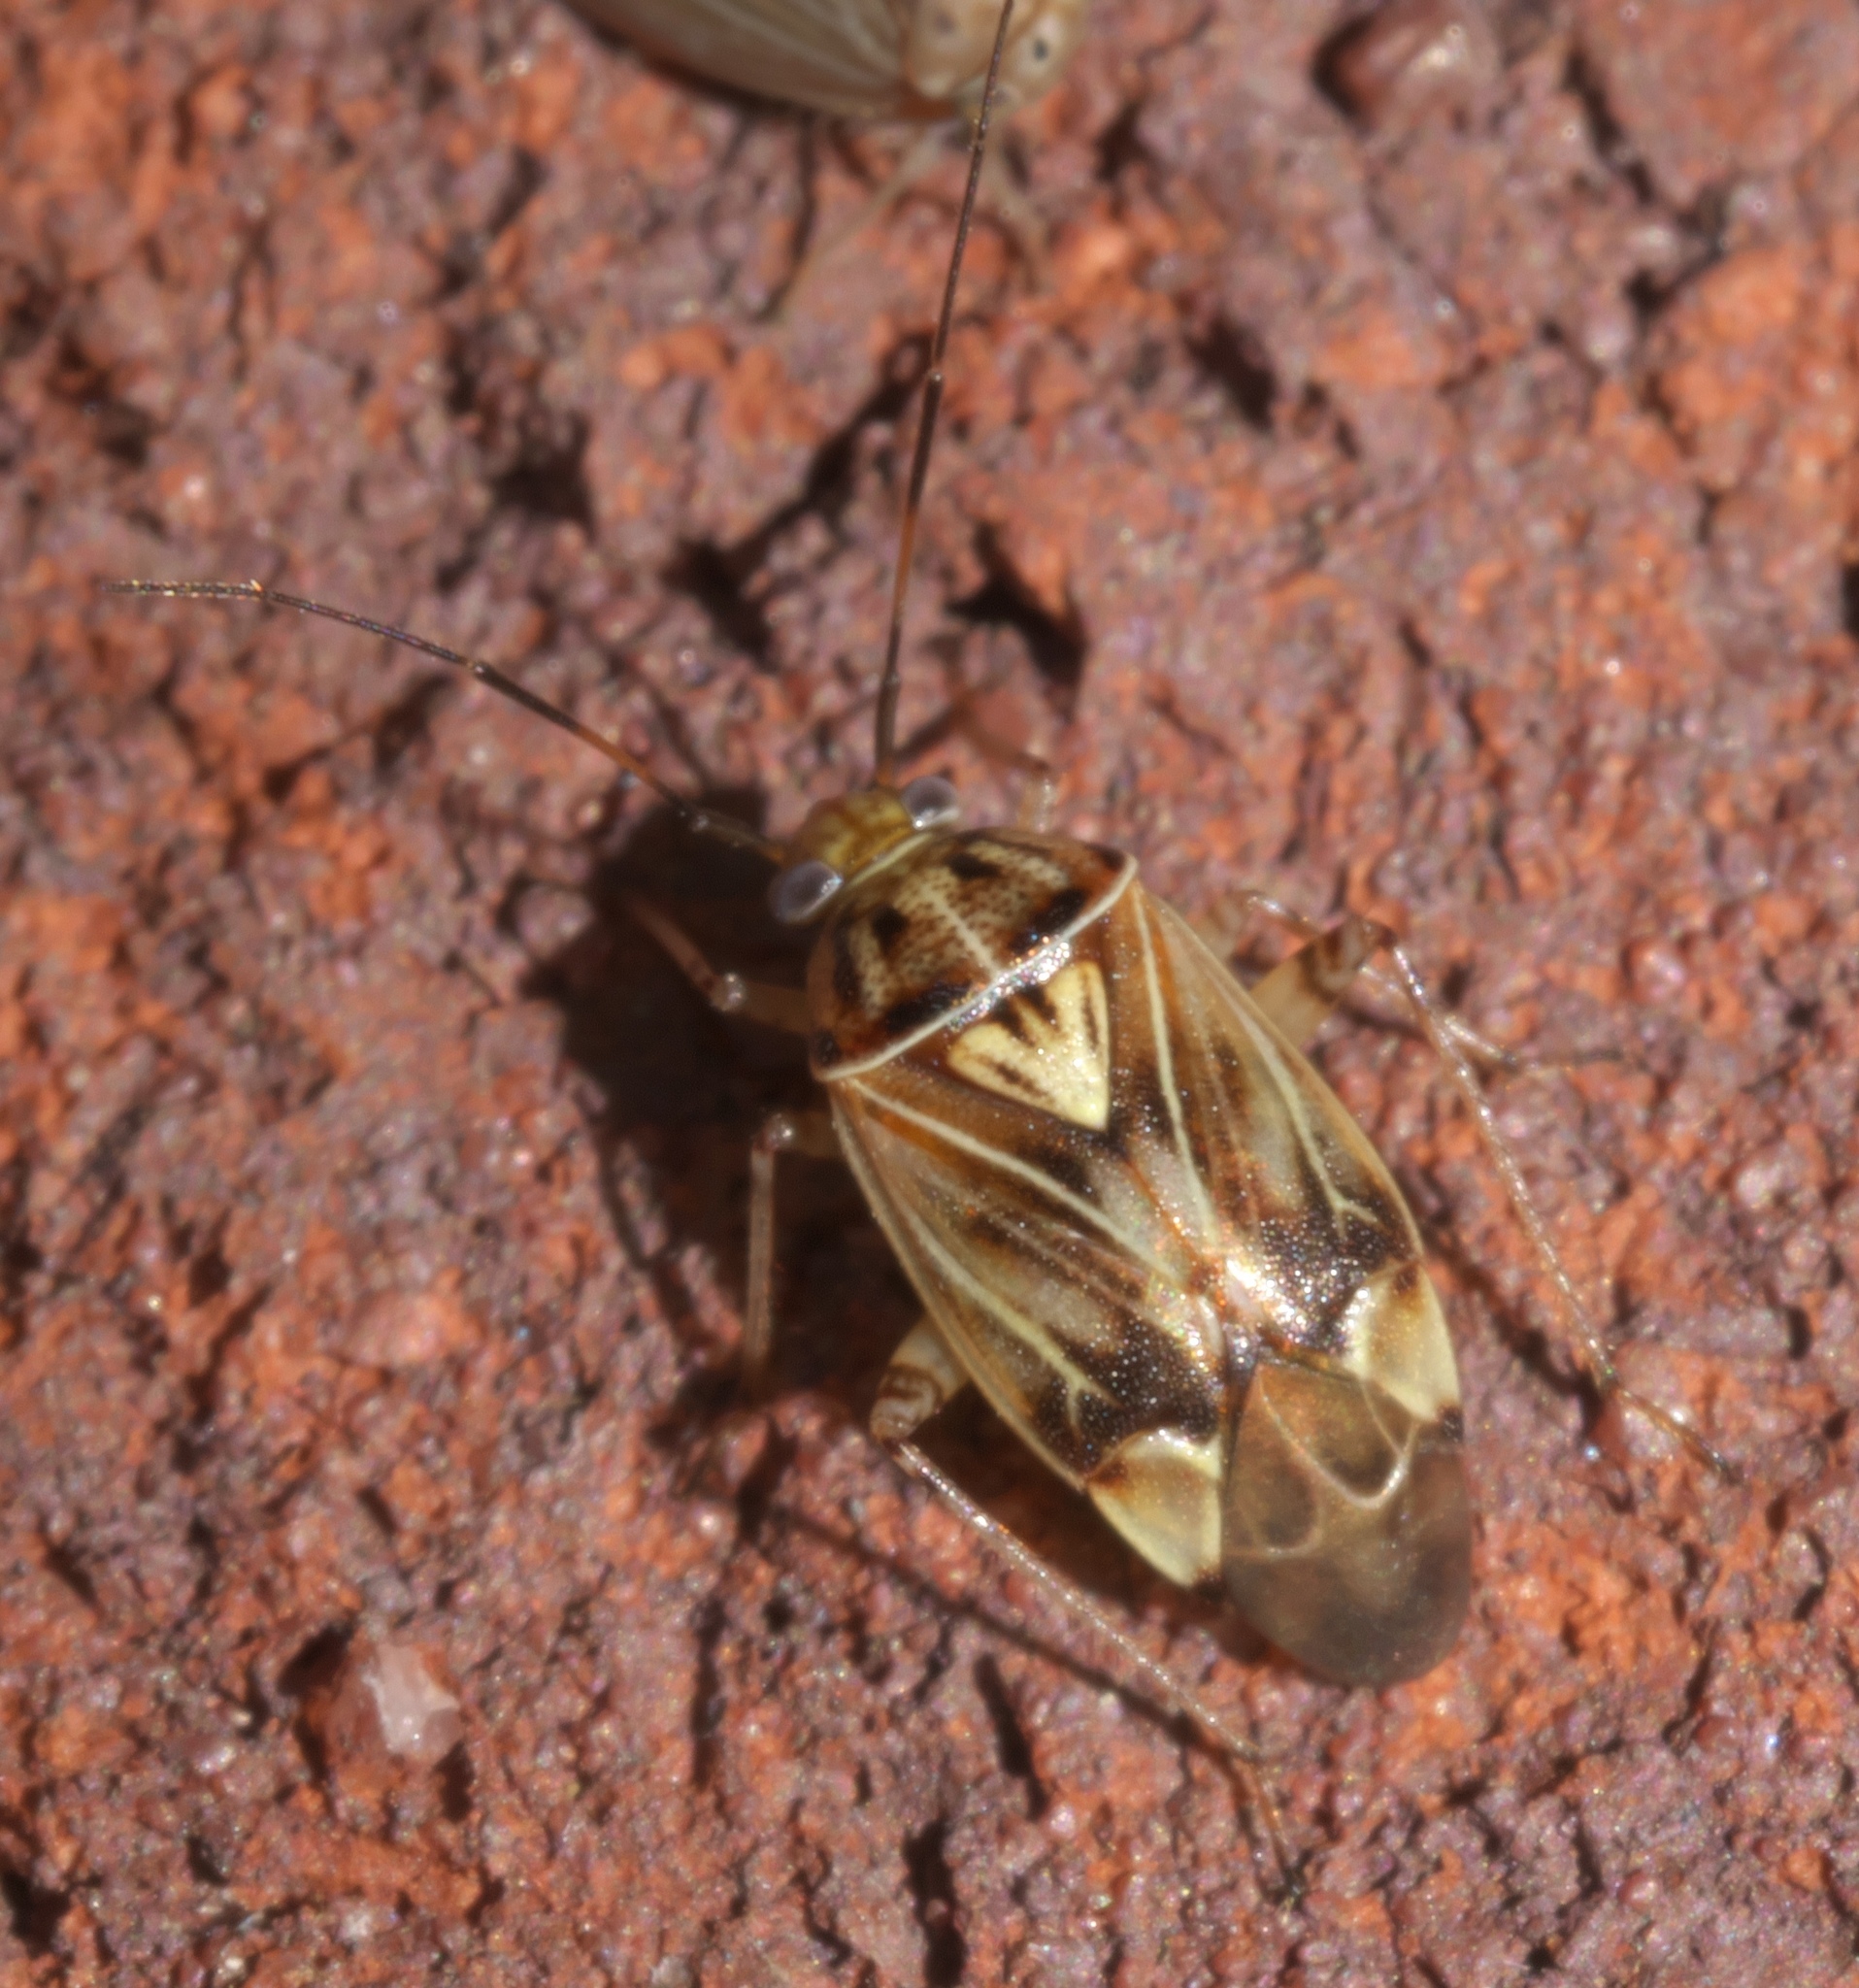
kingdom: Animalia
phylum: Arthropoda
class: Insecta
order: Hemiptera
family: Miridae
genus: Lygus
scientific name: Lygus lineolaris
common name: North american tarnished plant bug
